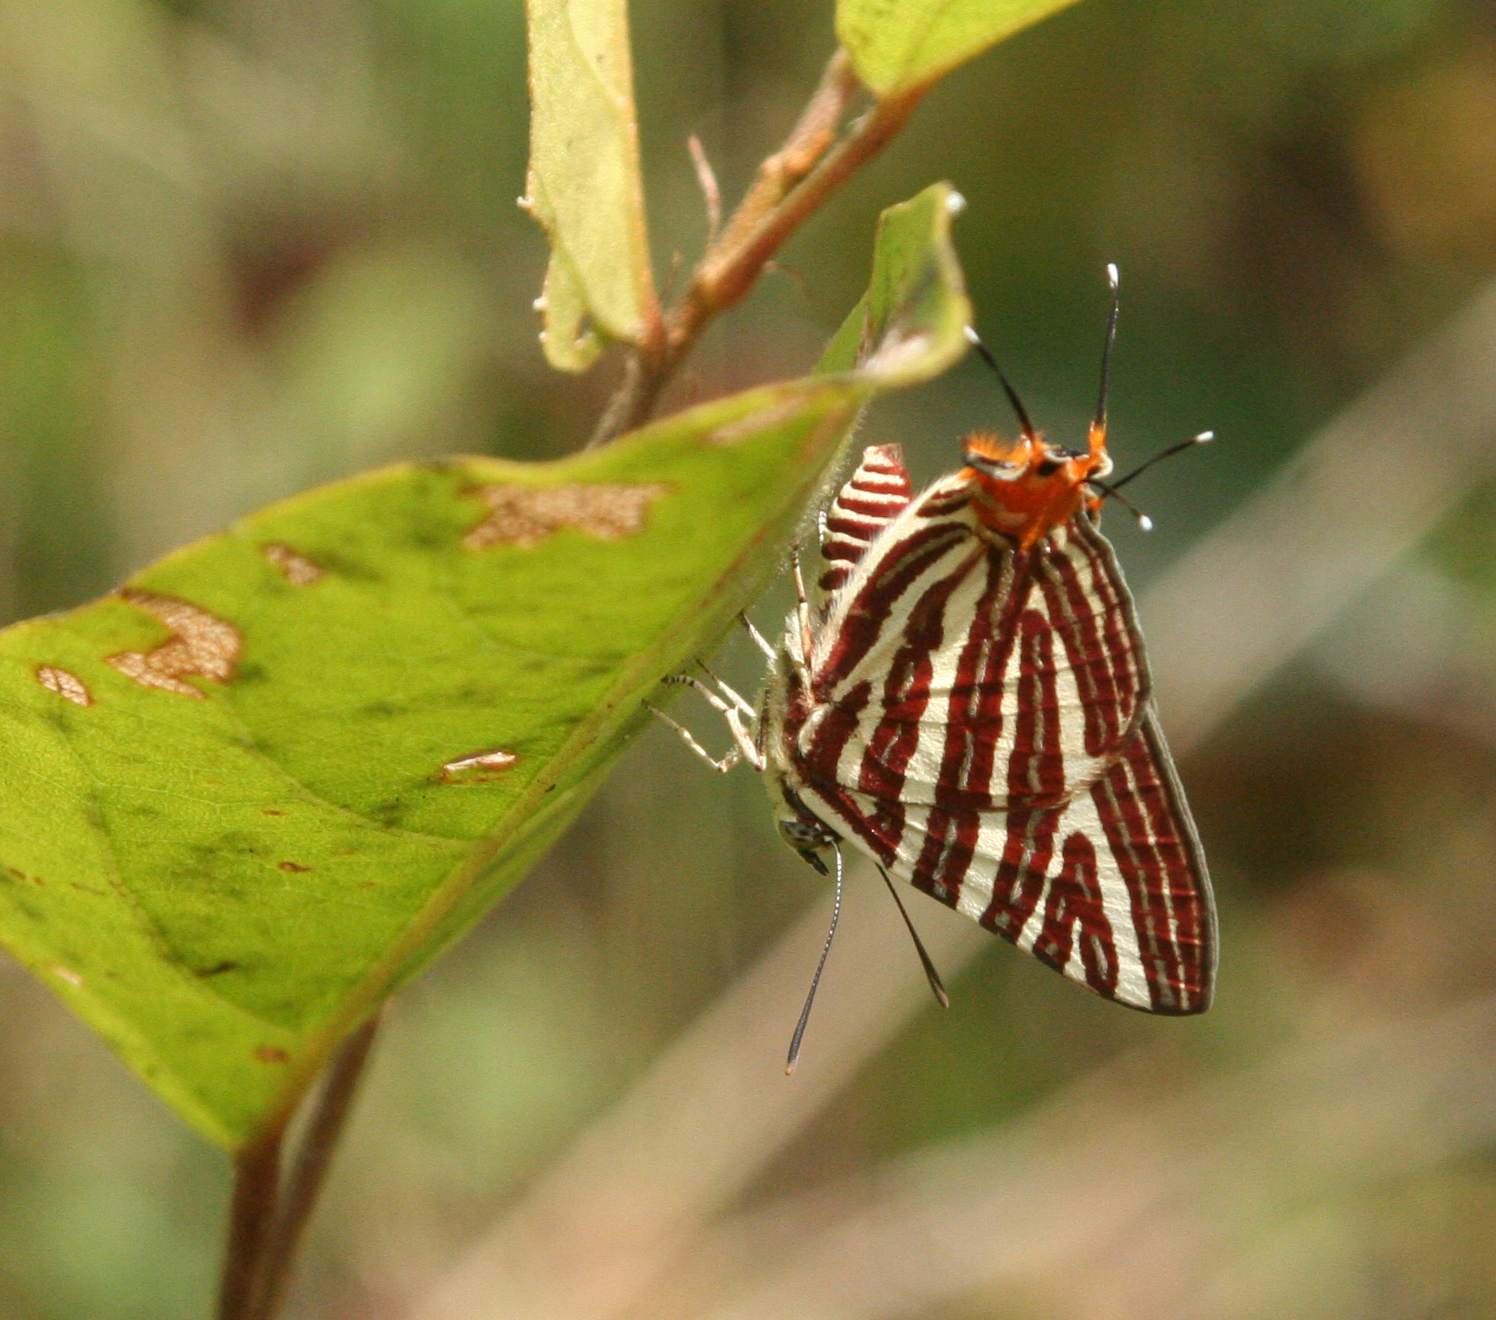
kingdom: Animalia
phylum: Arthropoda
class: Insecta
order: Lepidoptera
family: Lycaenidae
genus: Cigaritis
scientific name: Cigaritis lohita
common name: Long-banded silverline
